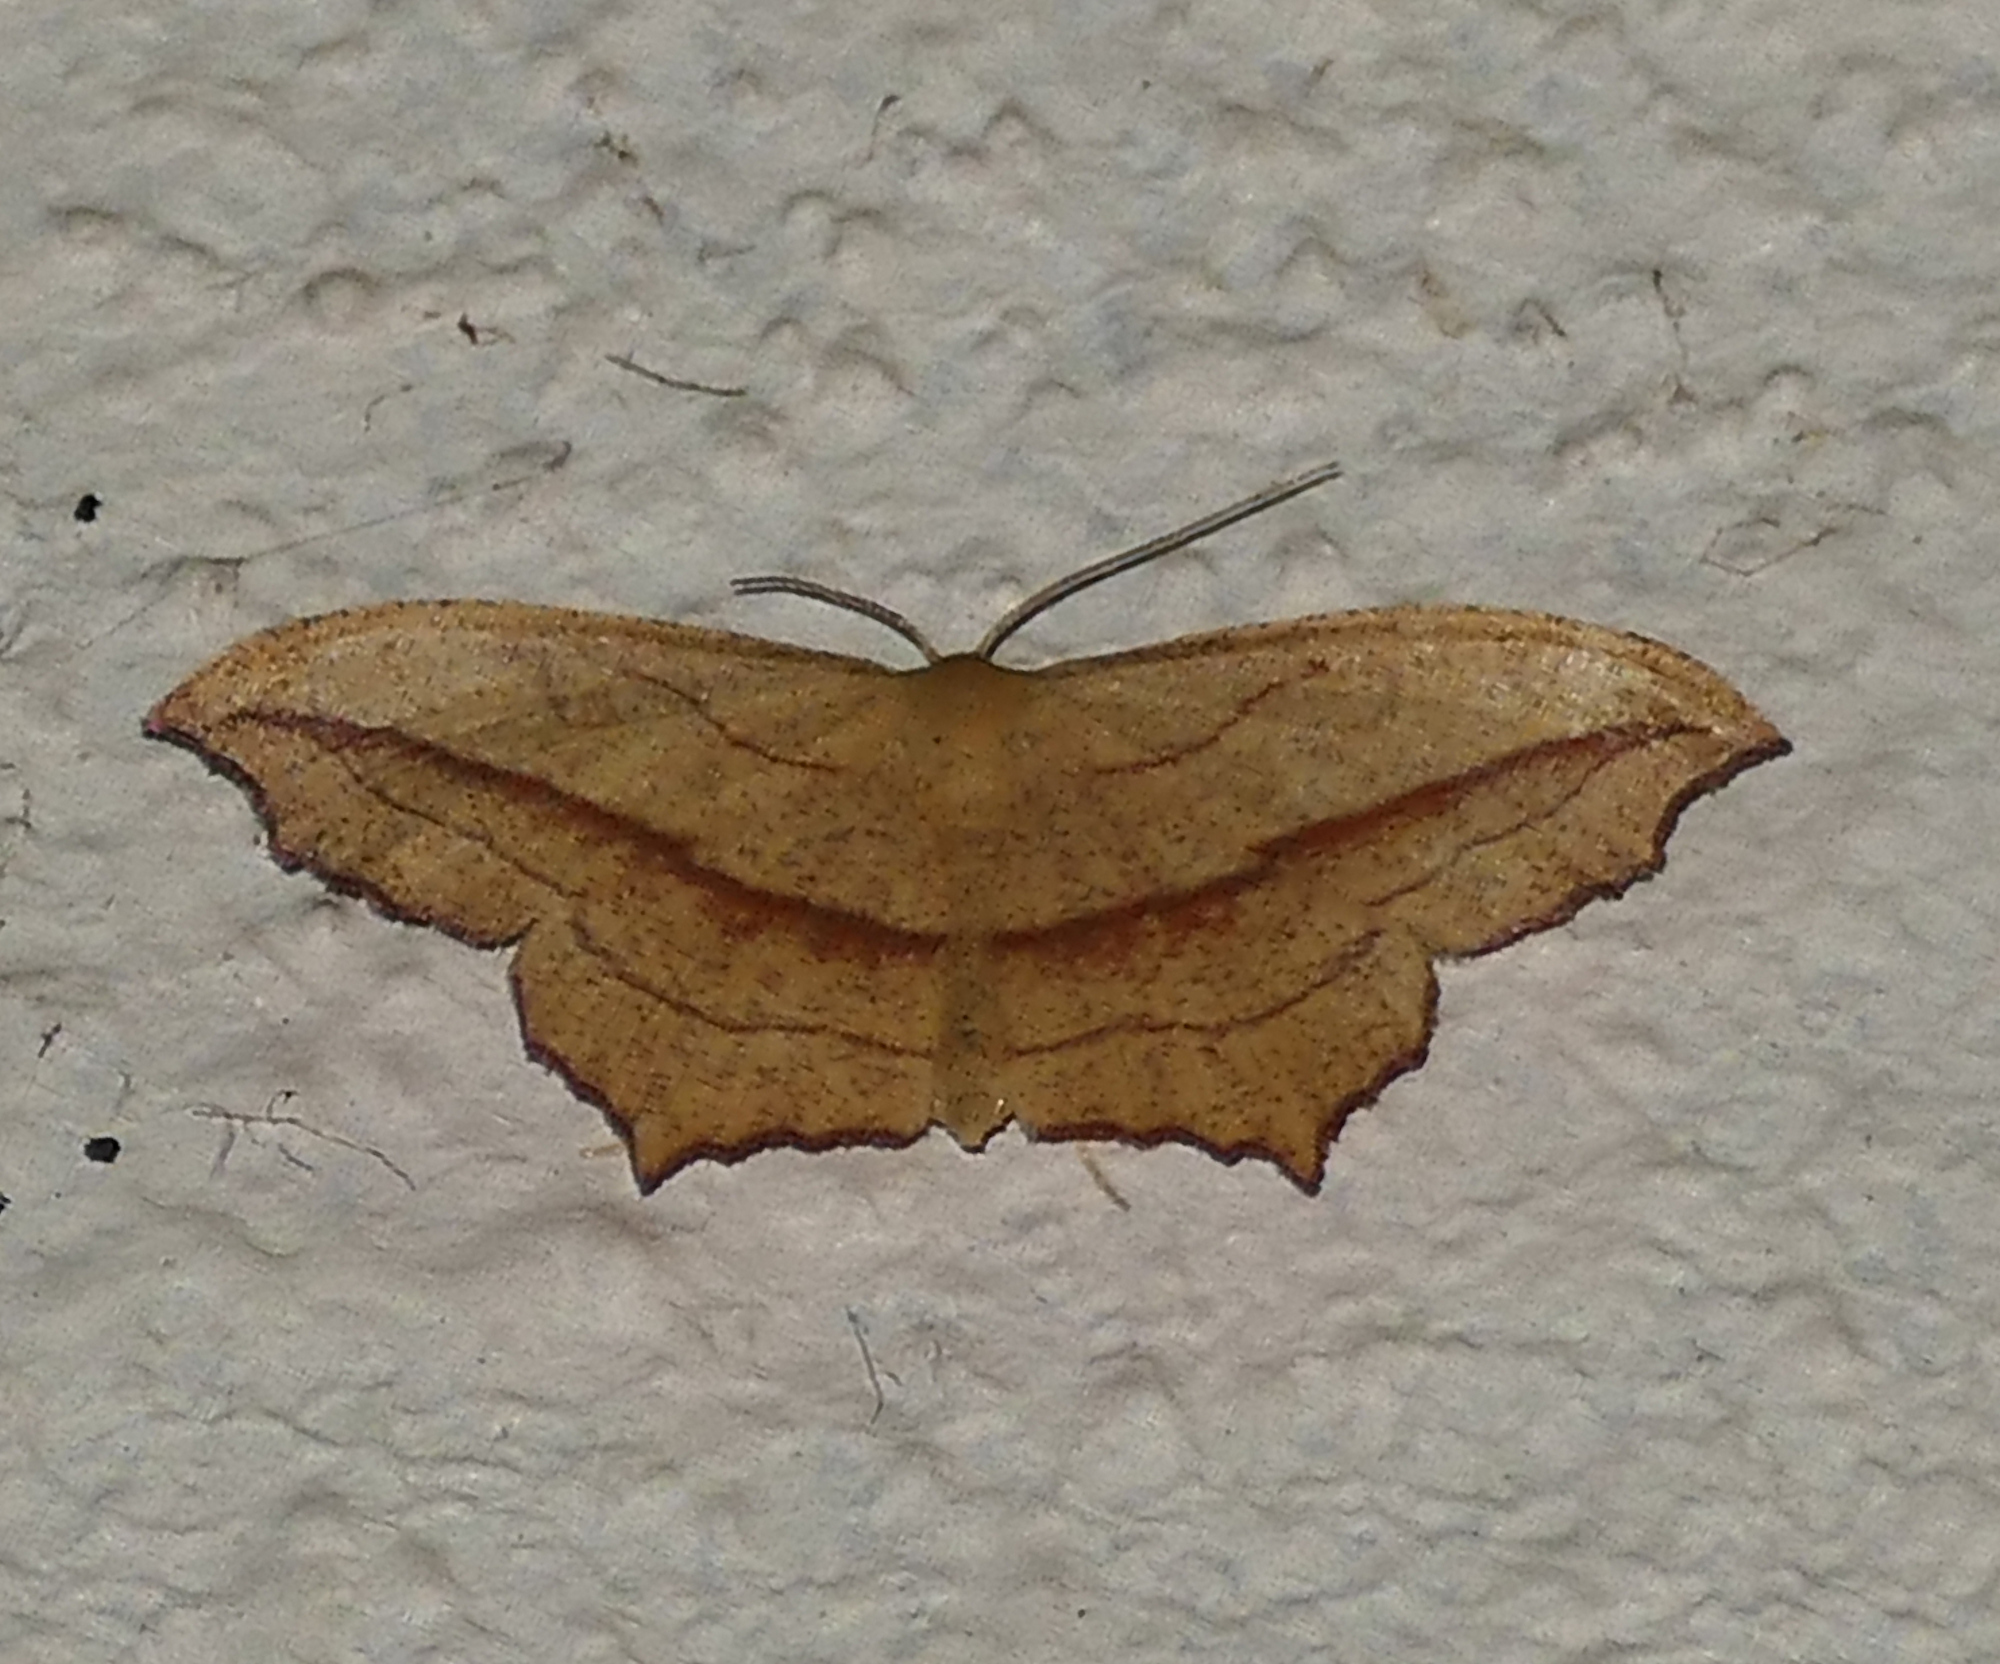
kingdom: Animalia
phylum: Arthropoda
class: Insecta
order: Lepidoptera
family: Geometridae
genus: Timandra
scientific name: Timandra amaturaria
